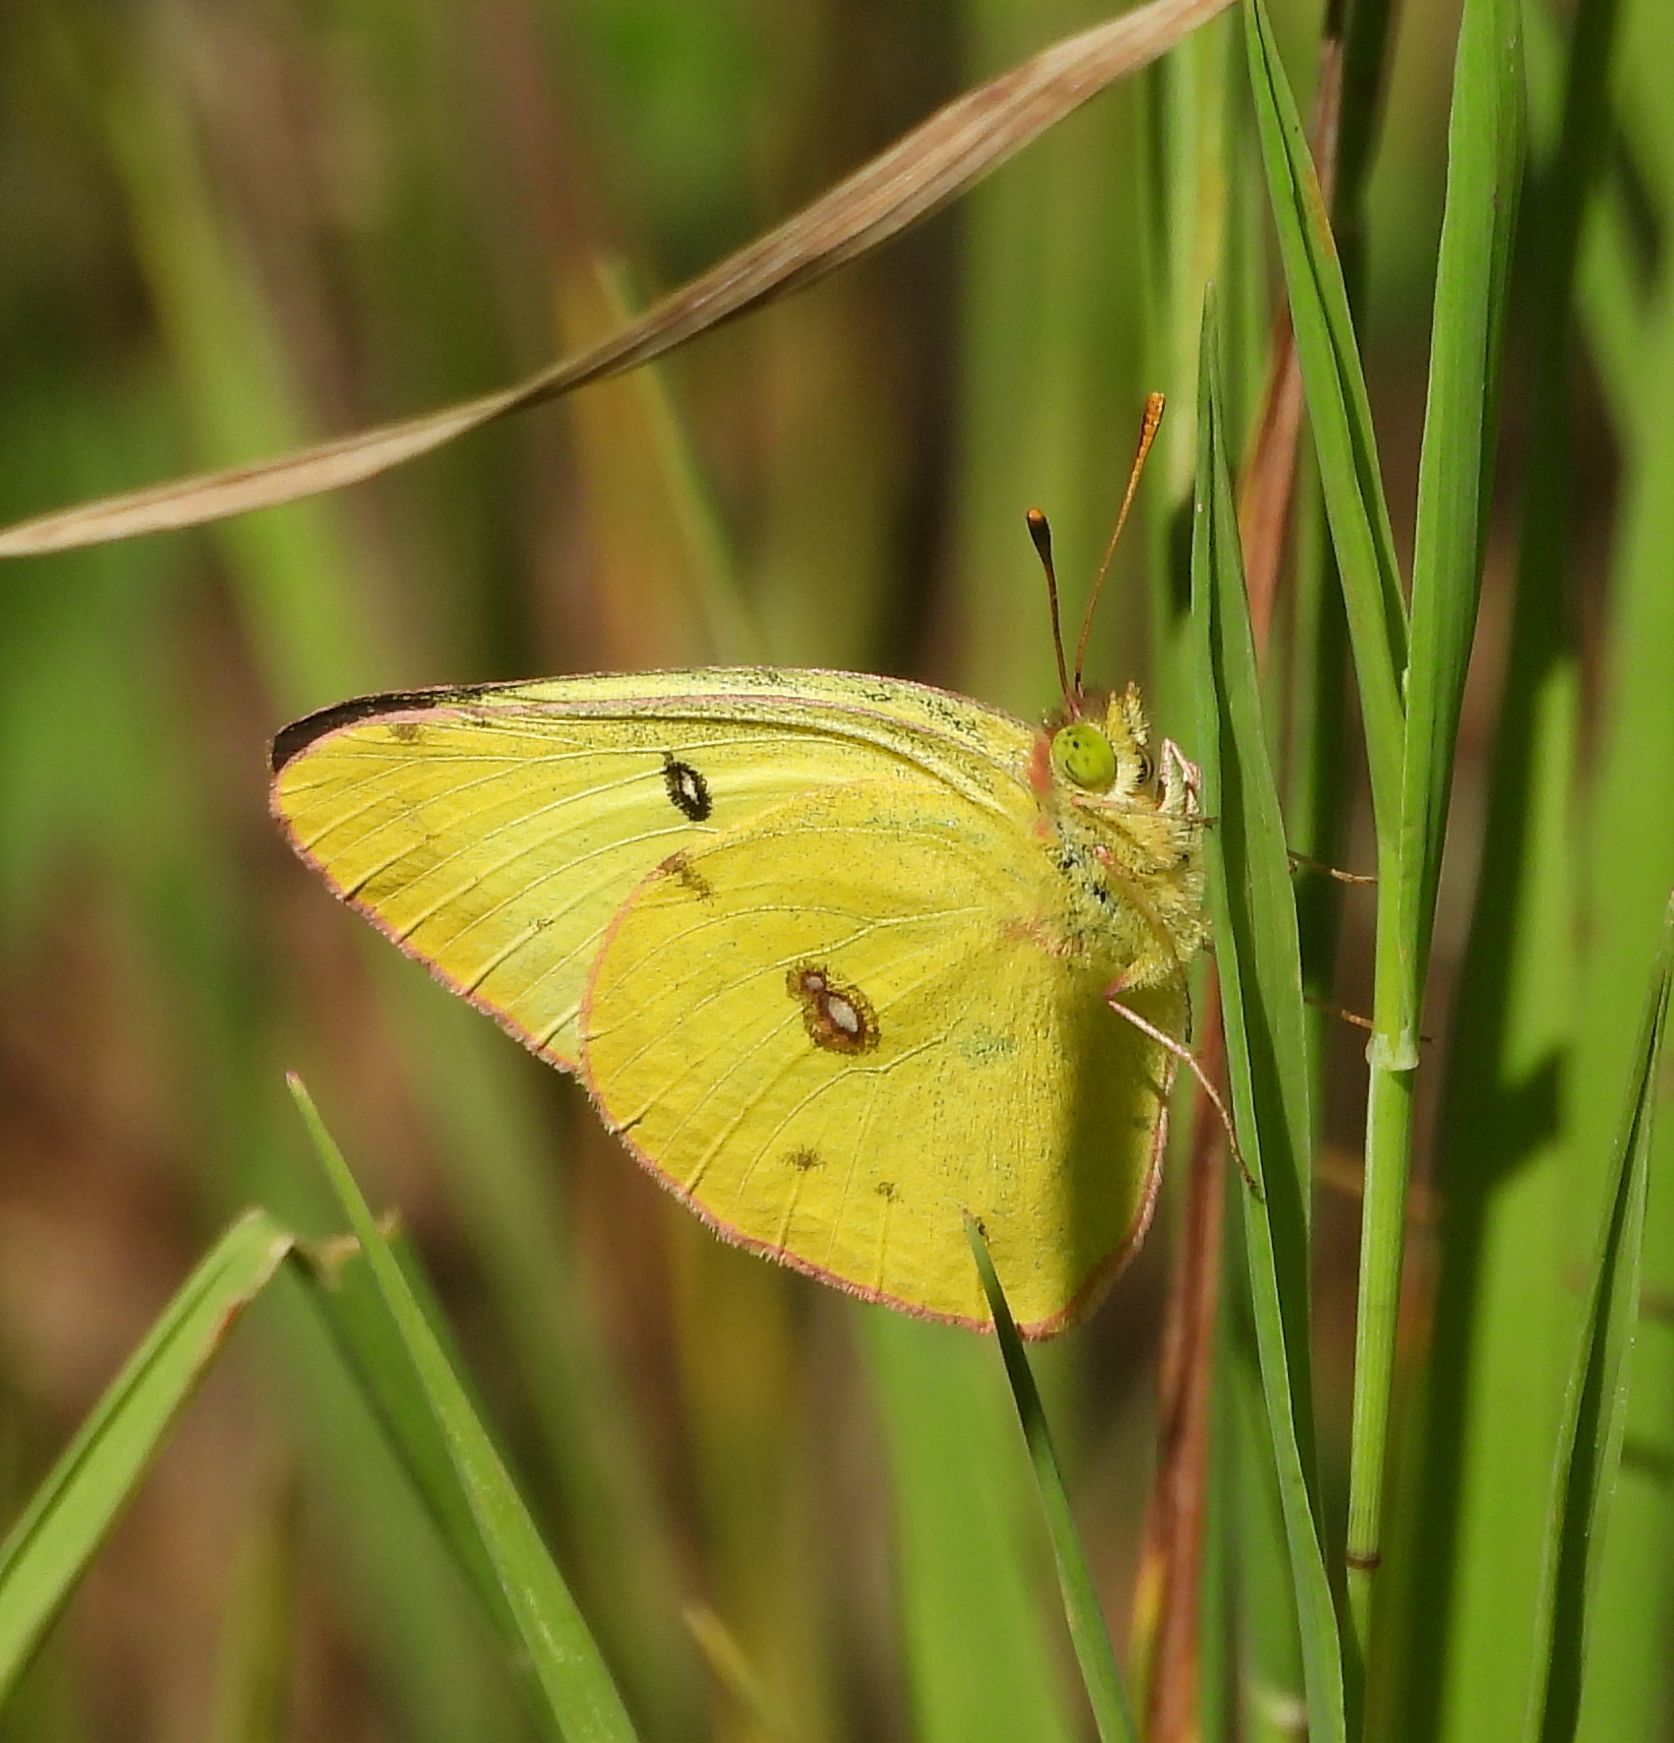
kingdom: Animalia
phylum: Arthropoda
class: Insecta
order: Lepidoptera
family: Pieridae
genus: Colias
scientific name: Colias philodice
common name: Clouded sulphur
